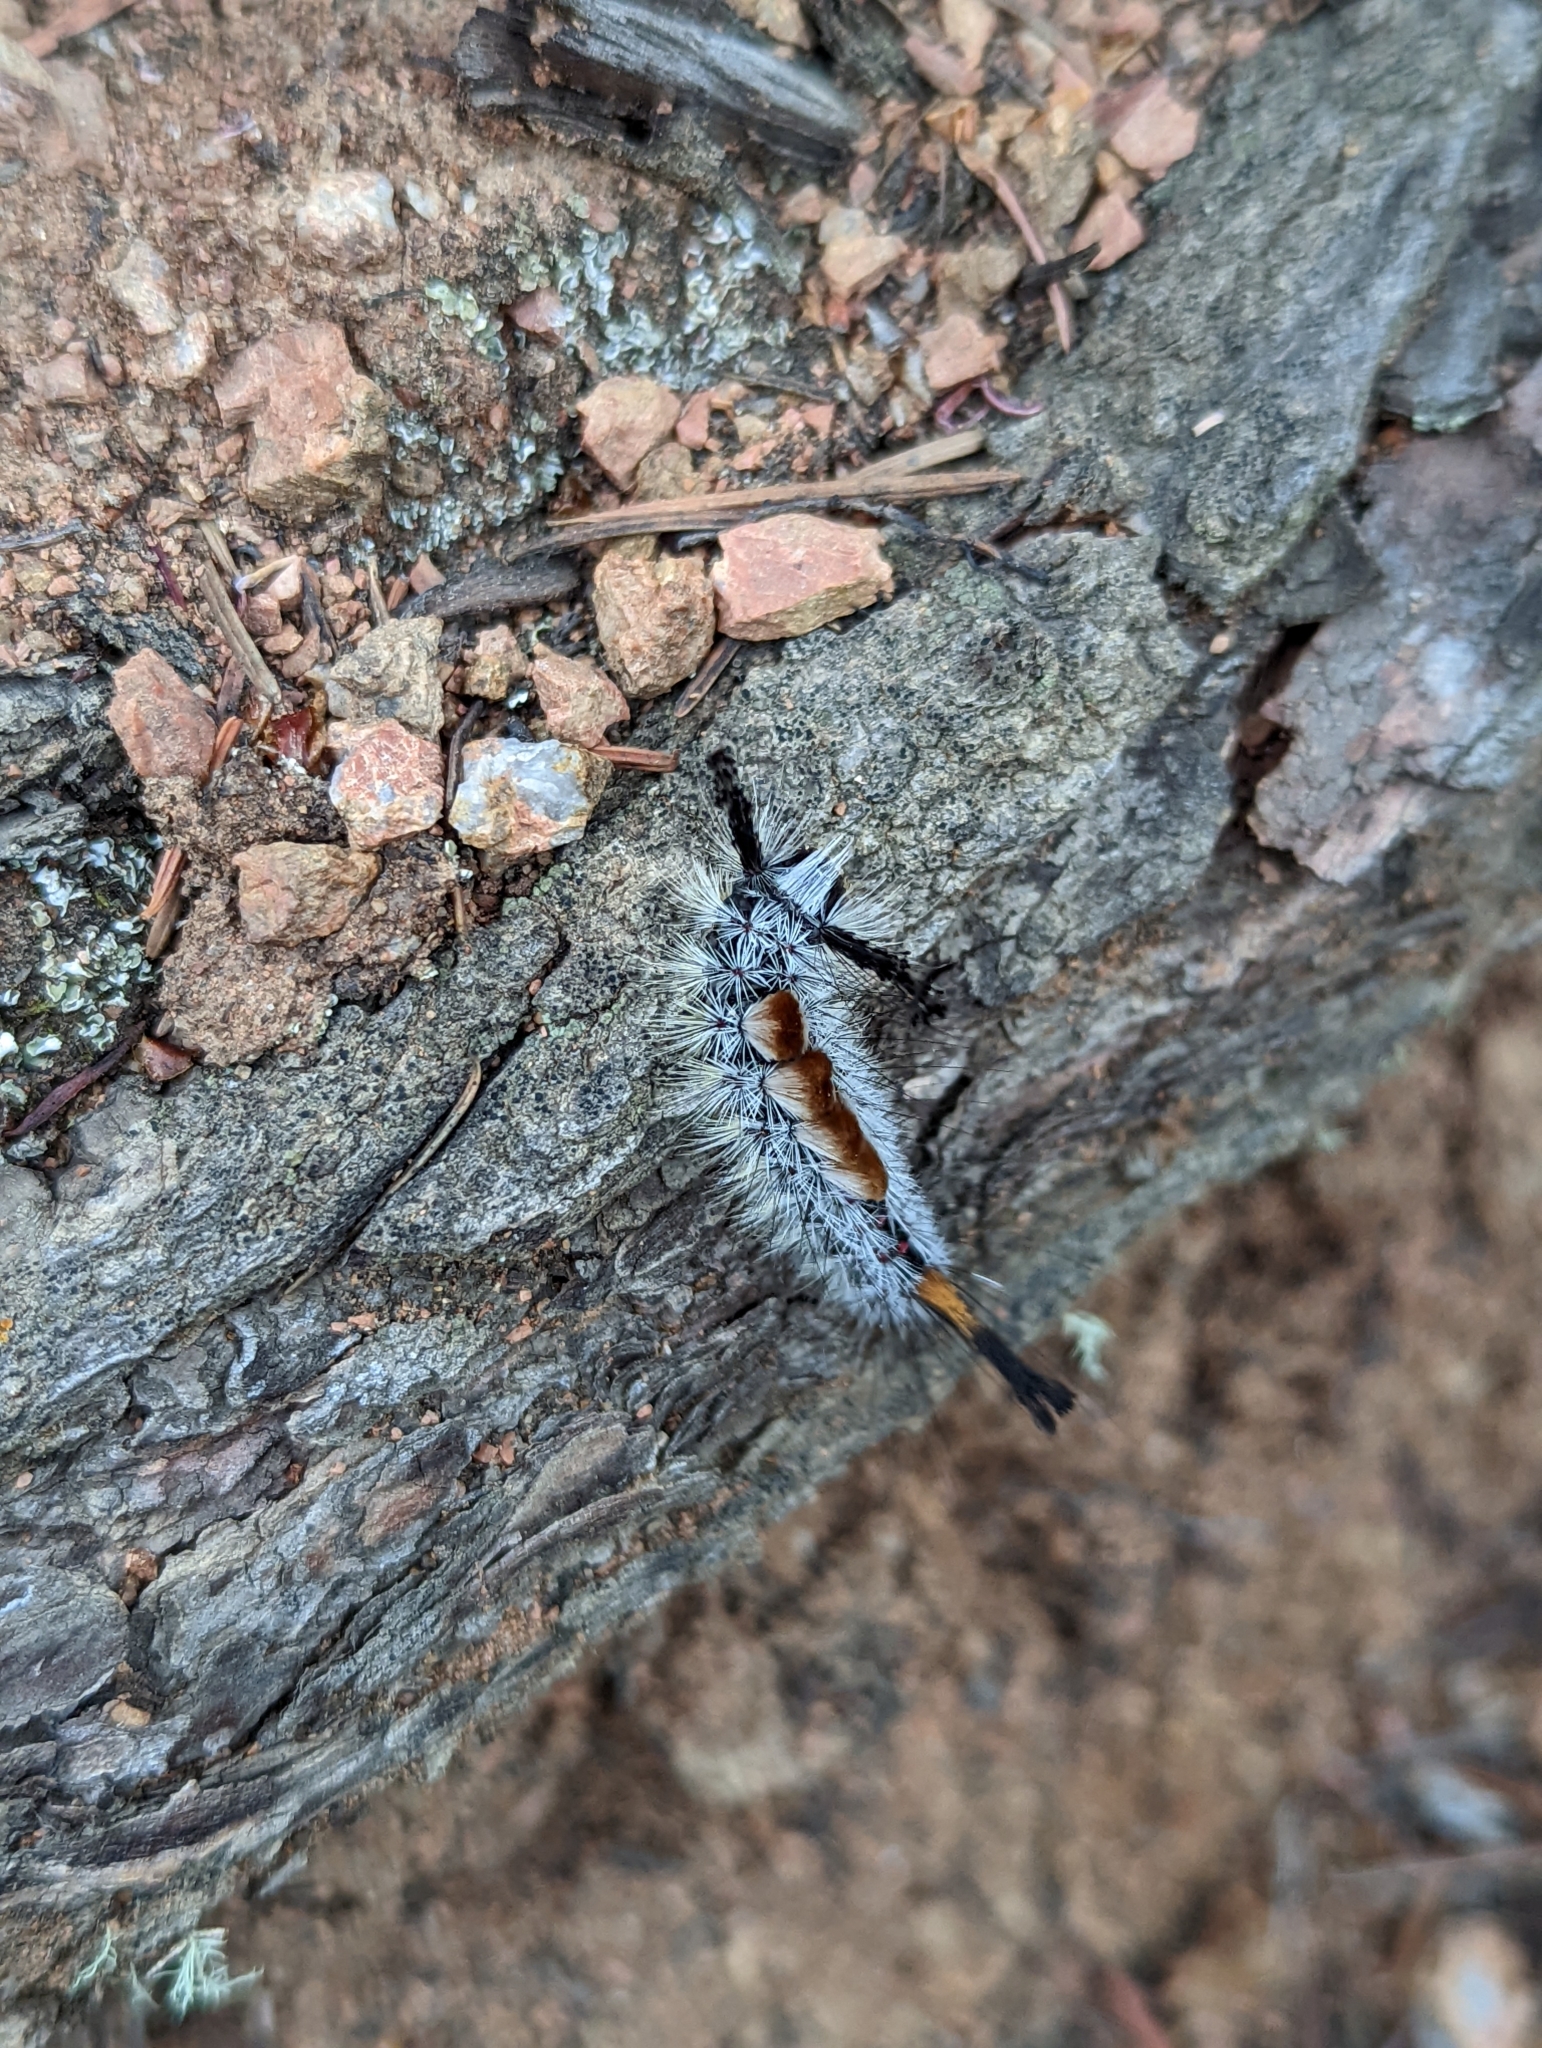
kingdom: Animalia
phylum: Arthropoda
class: Insecta
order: Lepidoptera
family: Erebidae
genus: Orgyia
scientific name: Orgyia pseudotsugata
